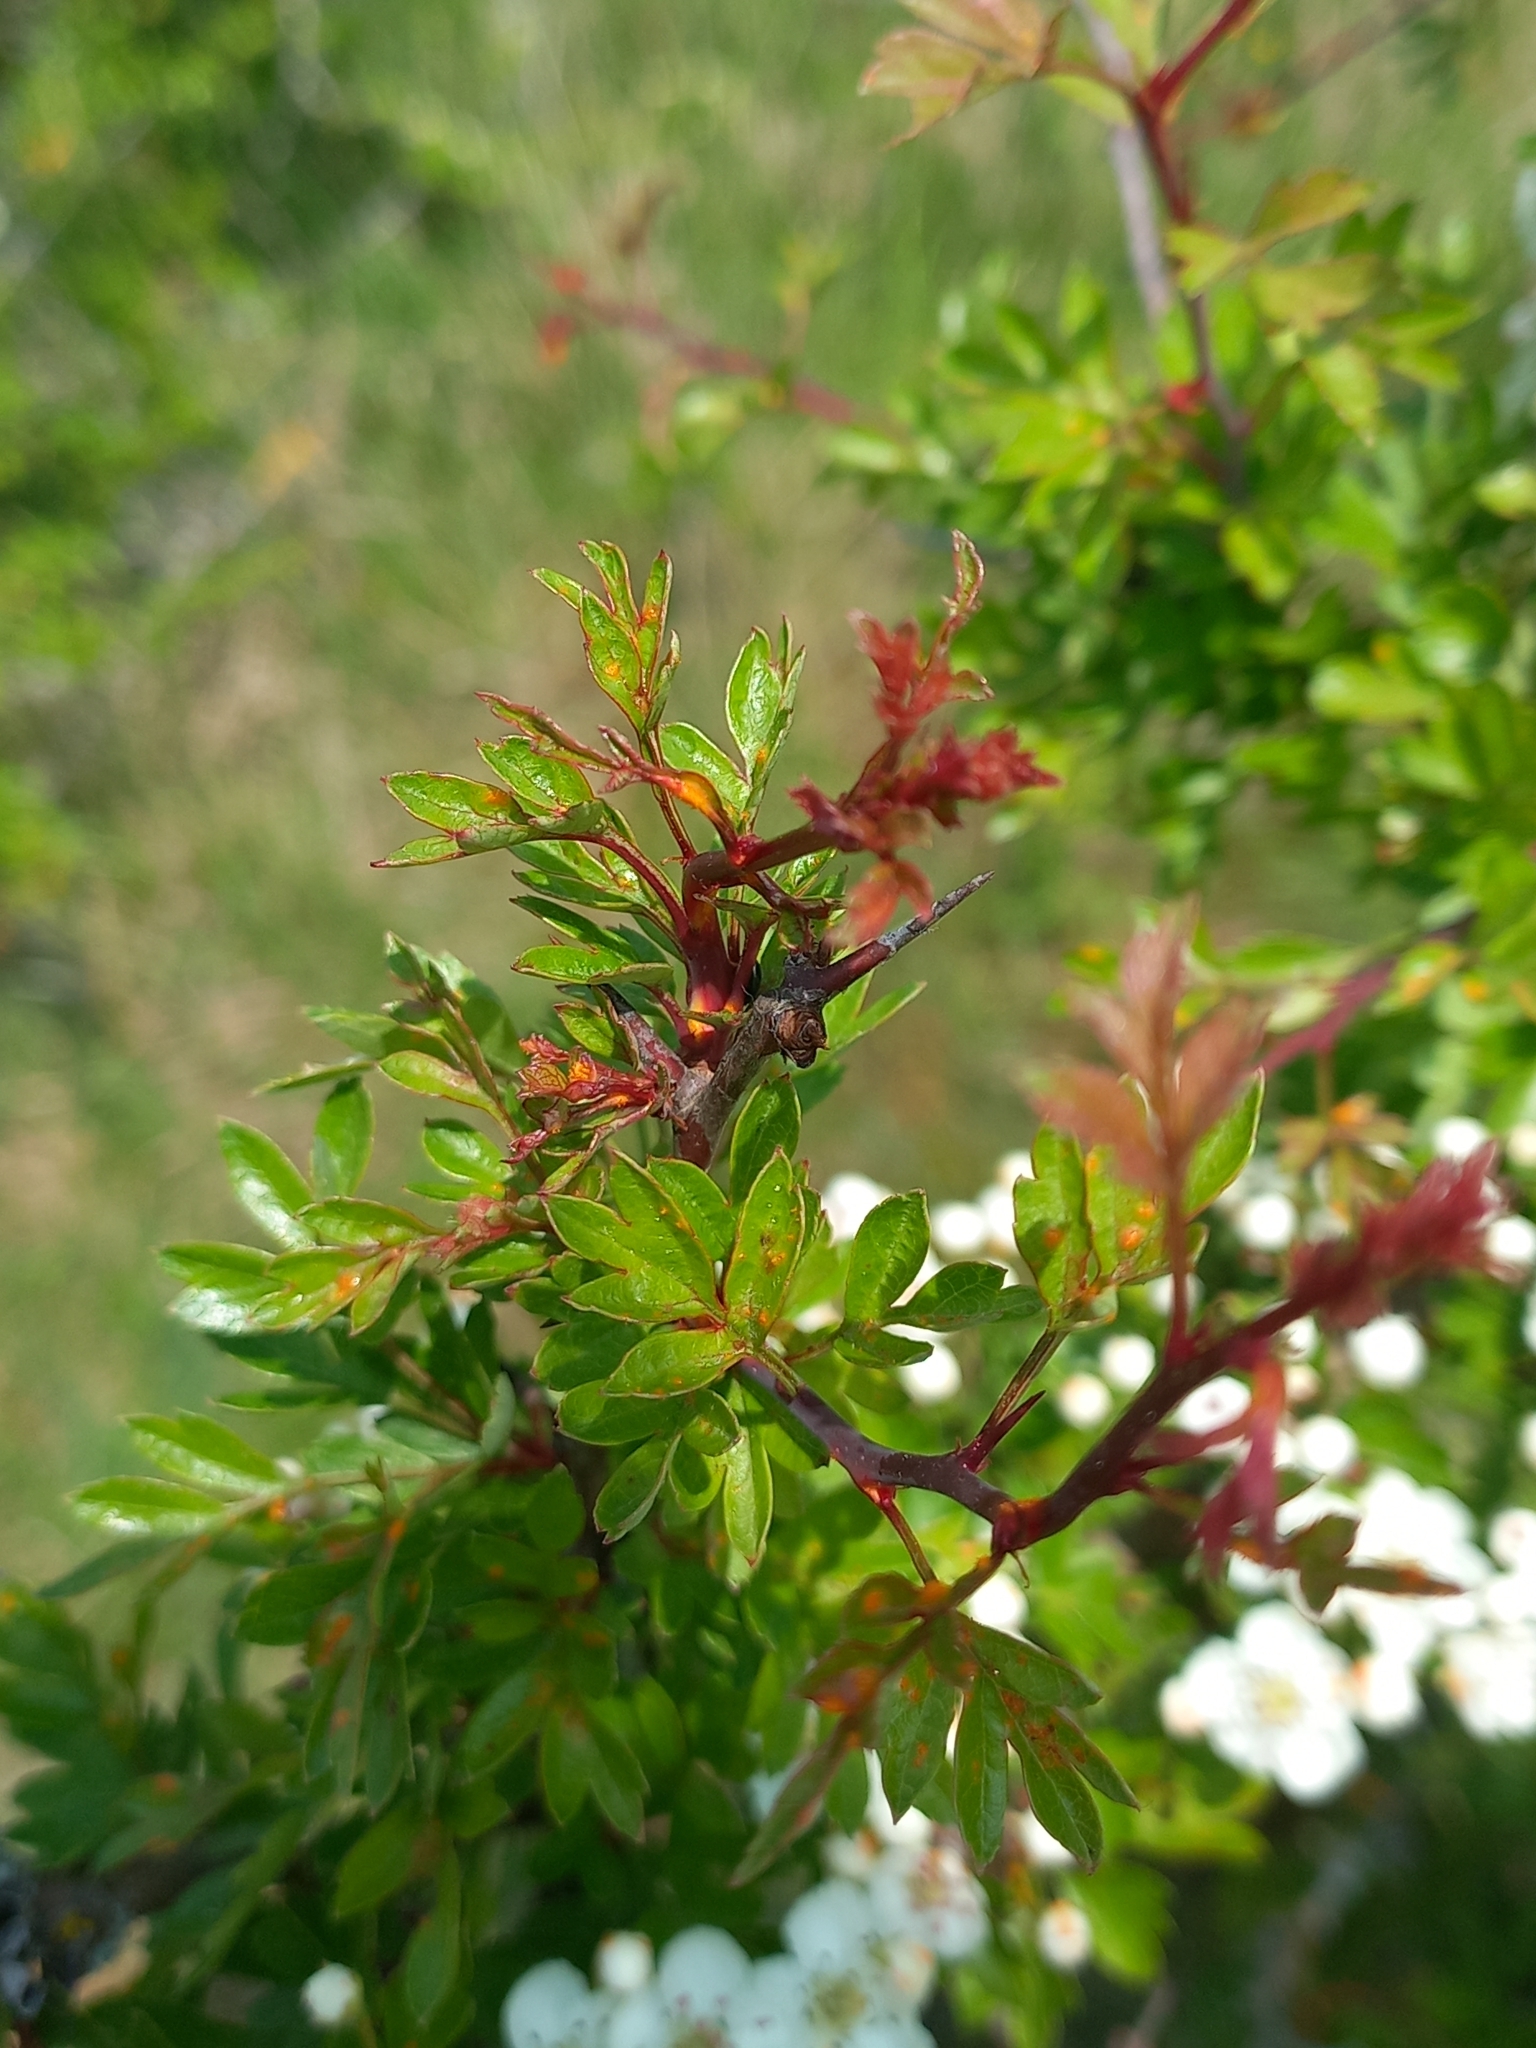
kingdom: Plantae
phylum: Tracheophyta
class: Magnoliopsida
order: Rosales
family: Rosaceae
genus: Crataegus
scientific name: Crataegus monogyna
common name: Hawthorn
